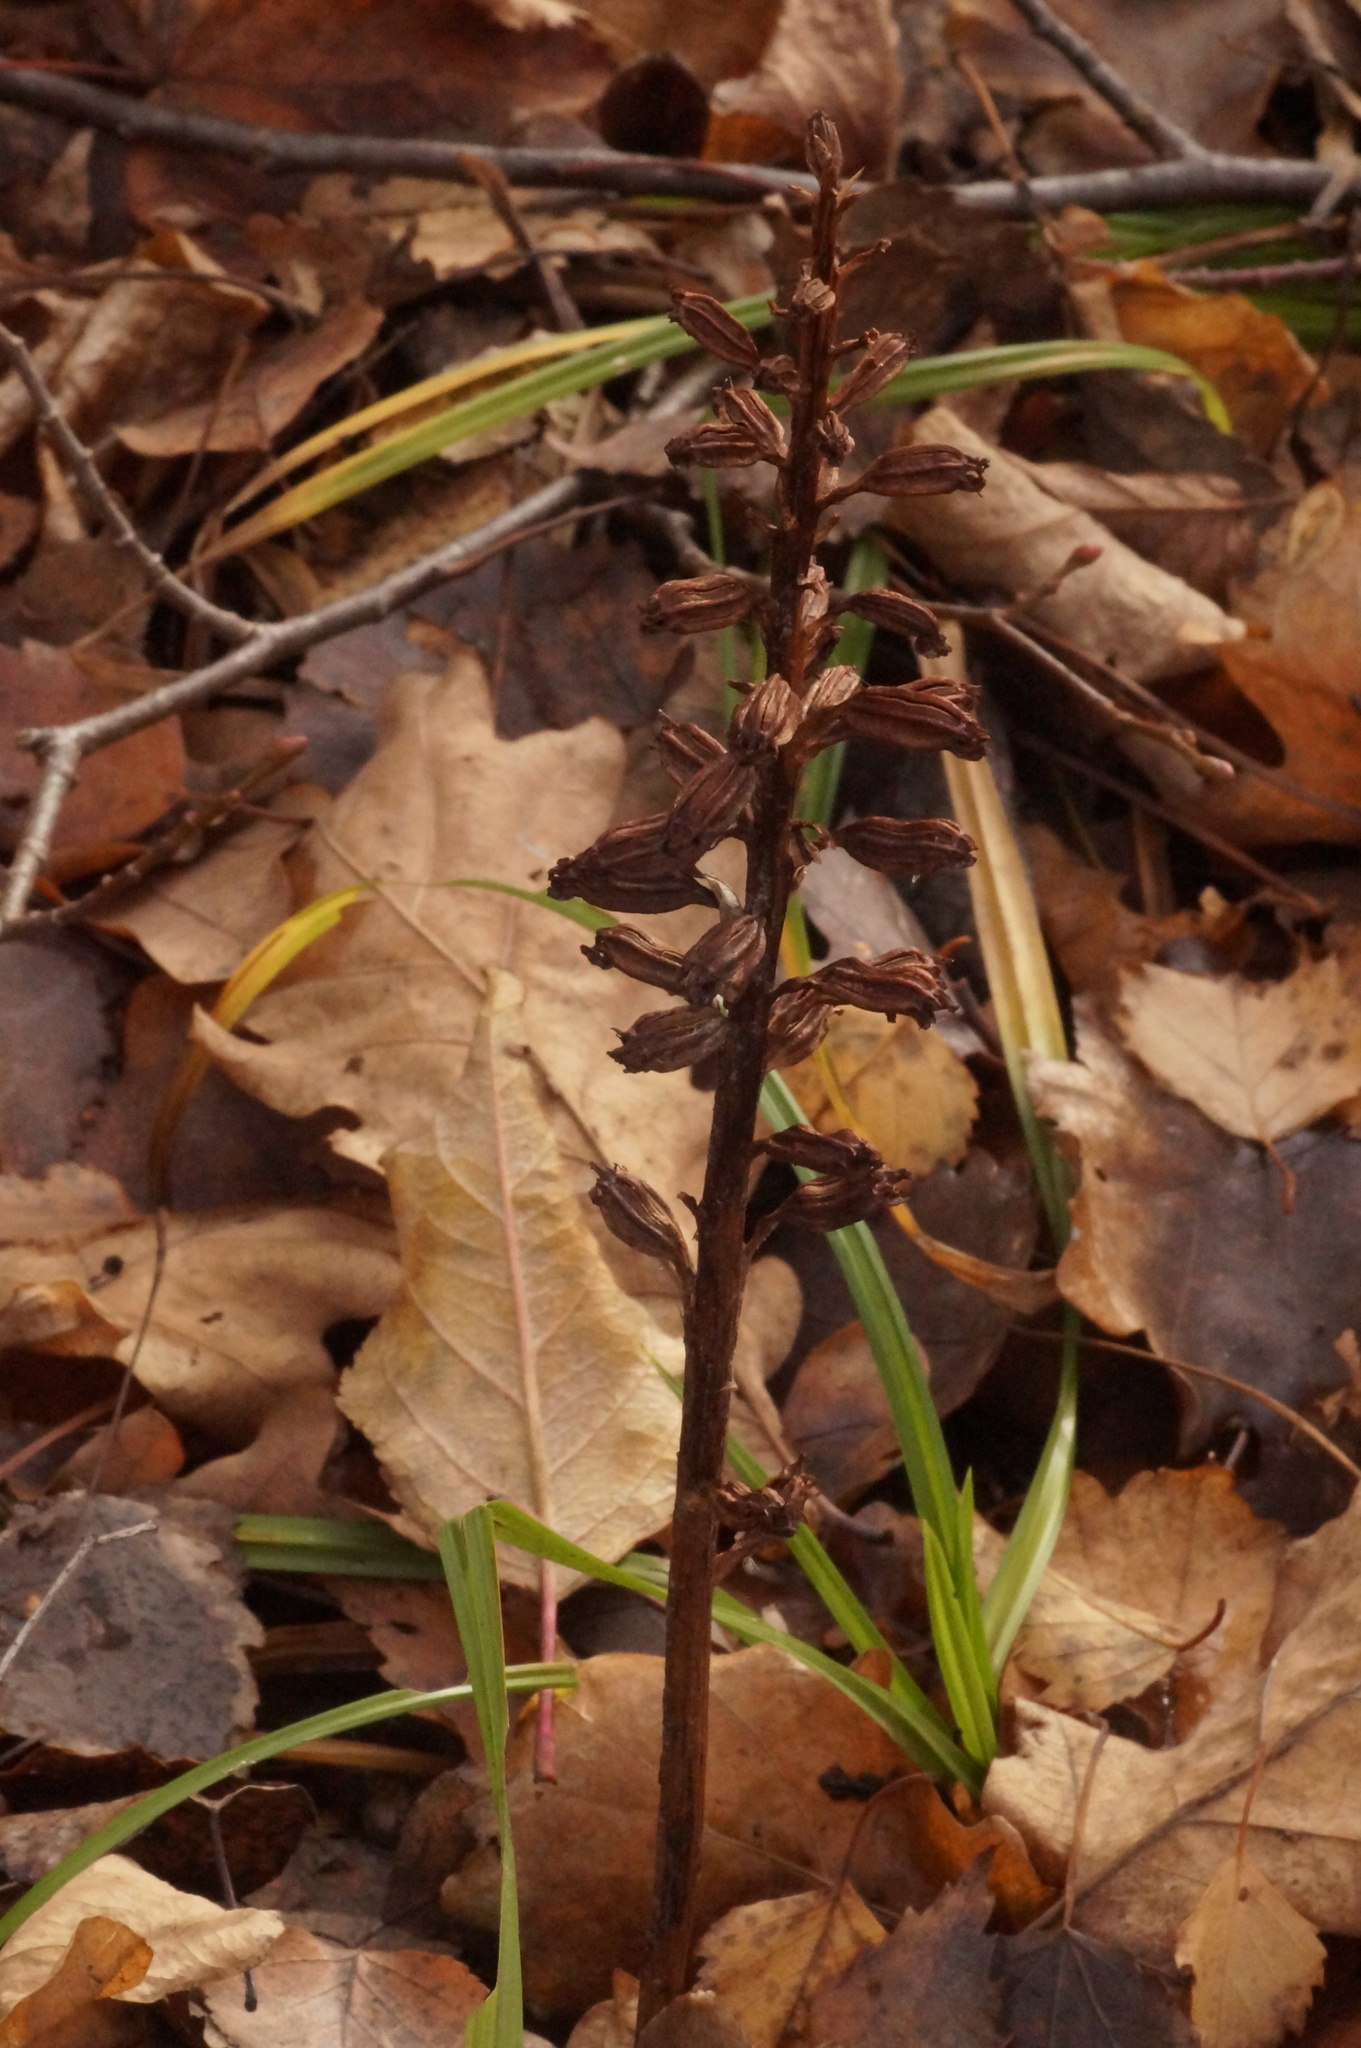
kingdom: Plantae
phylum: Tracheophyta
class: Liliopsida
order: Asparagales
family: Orchidaceae
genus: Neottia
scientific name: Neottia nidus-avis
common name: Bird's-nest orchid
